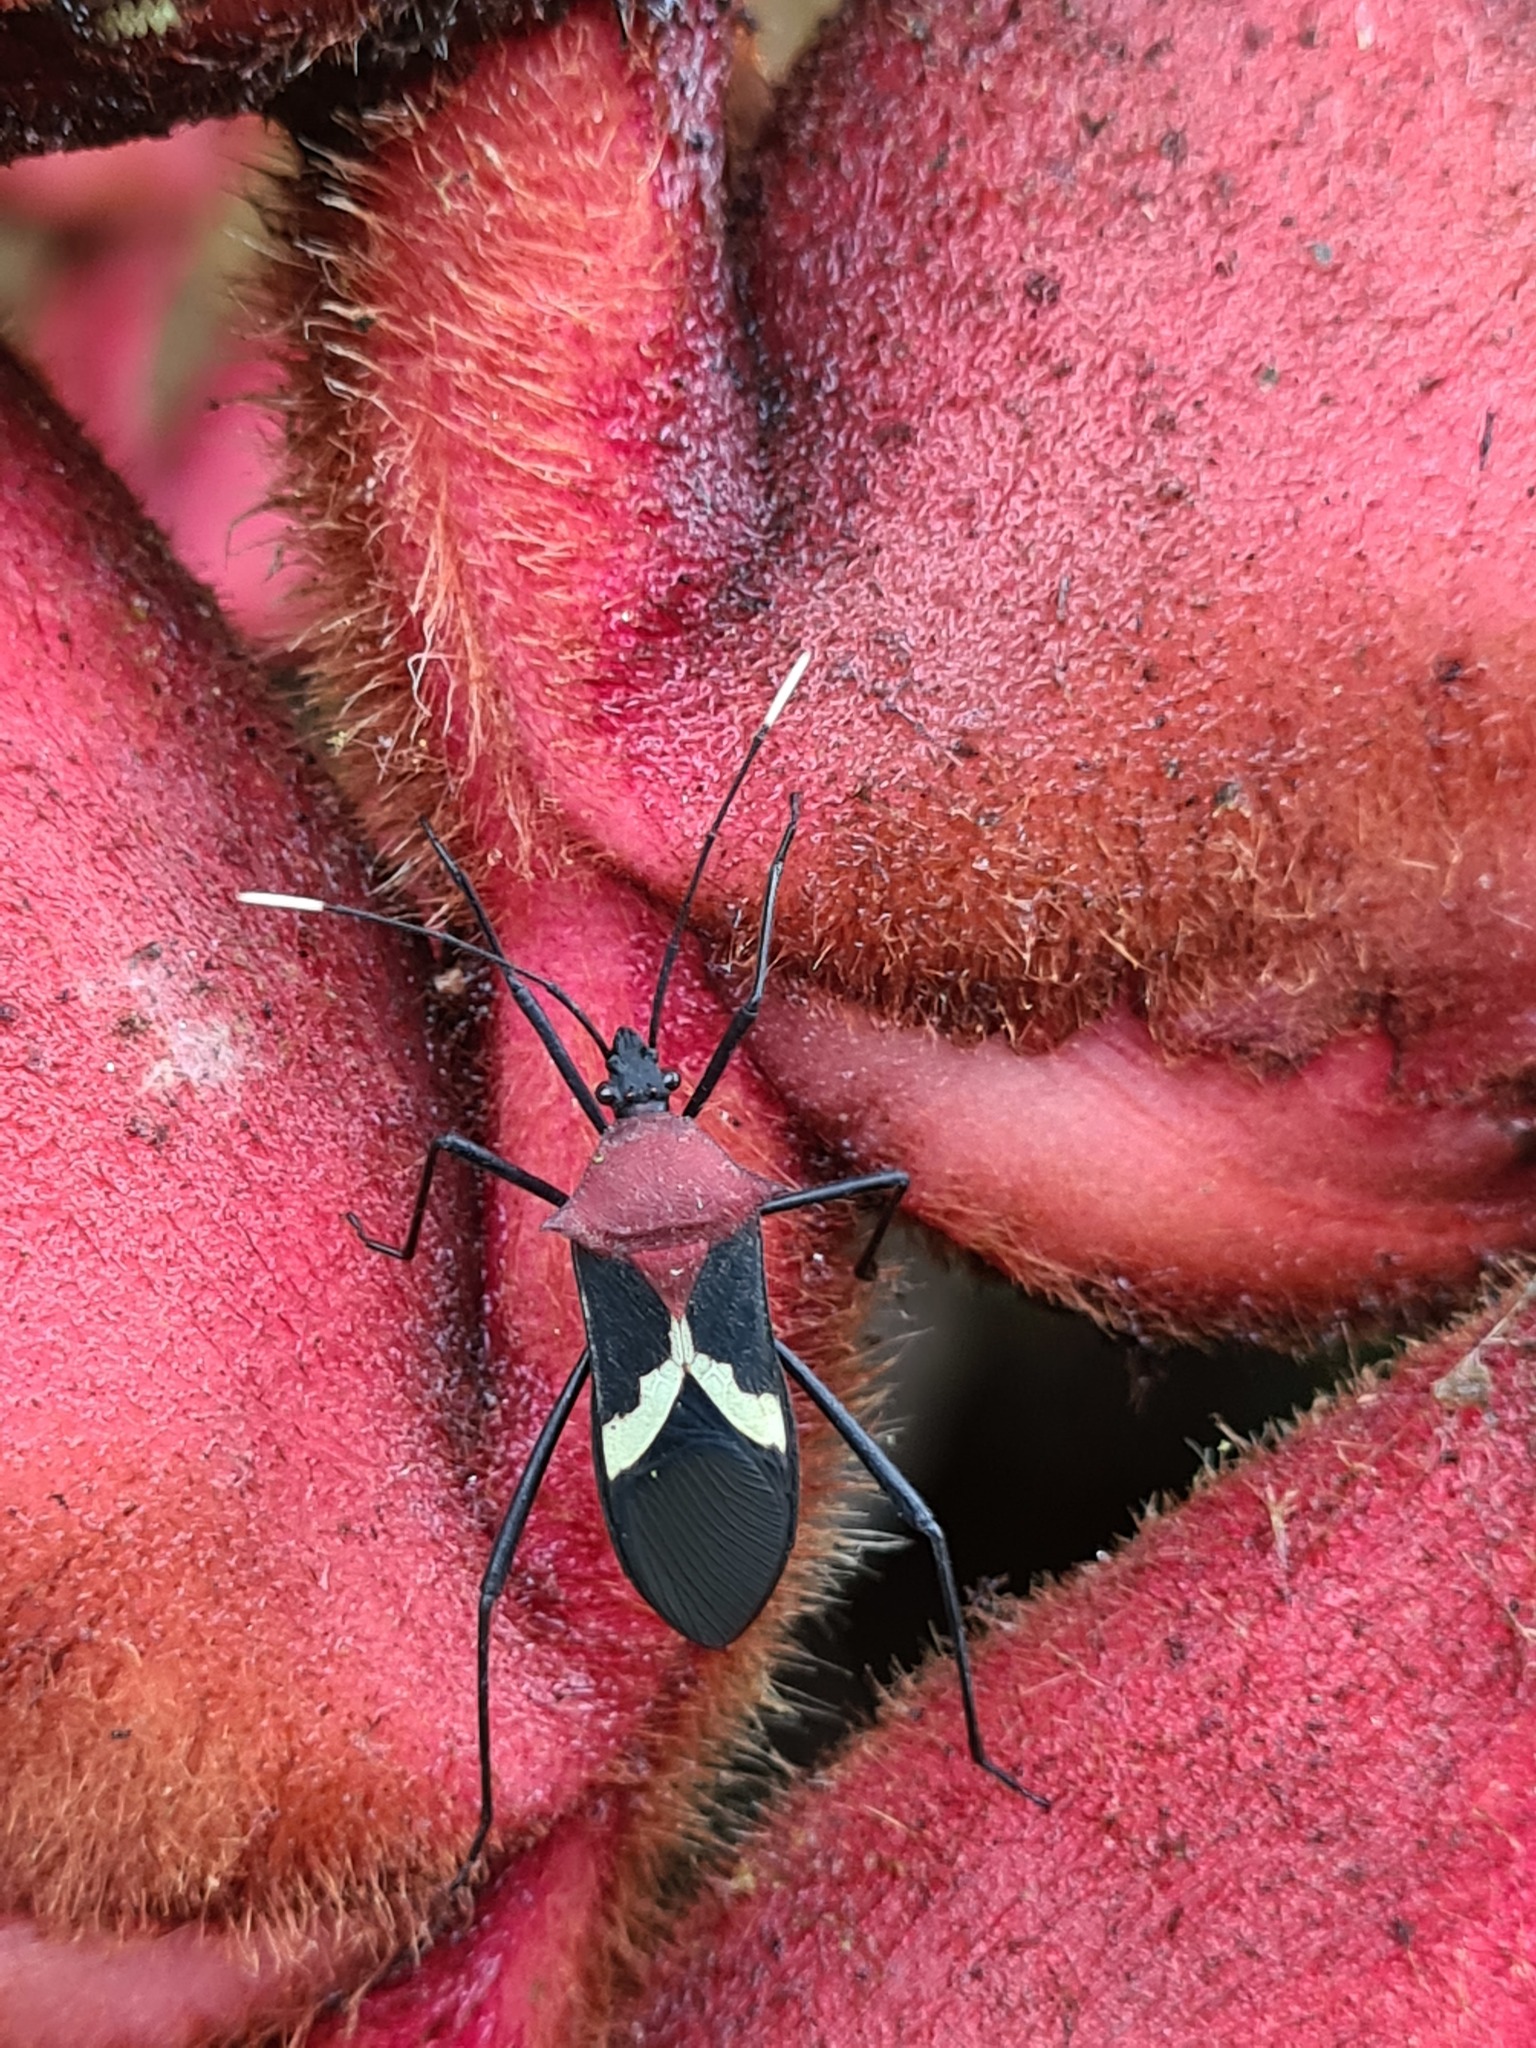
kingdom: Animalia
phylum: Arthropoda
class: Insecta
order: Hemiptera
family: Coreidae
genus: Leptoscelis
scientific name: Leptoscelis militaris
